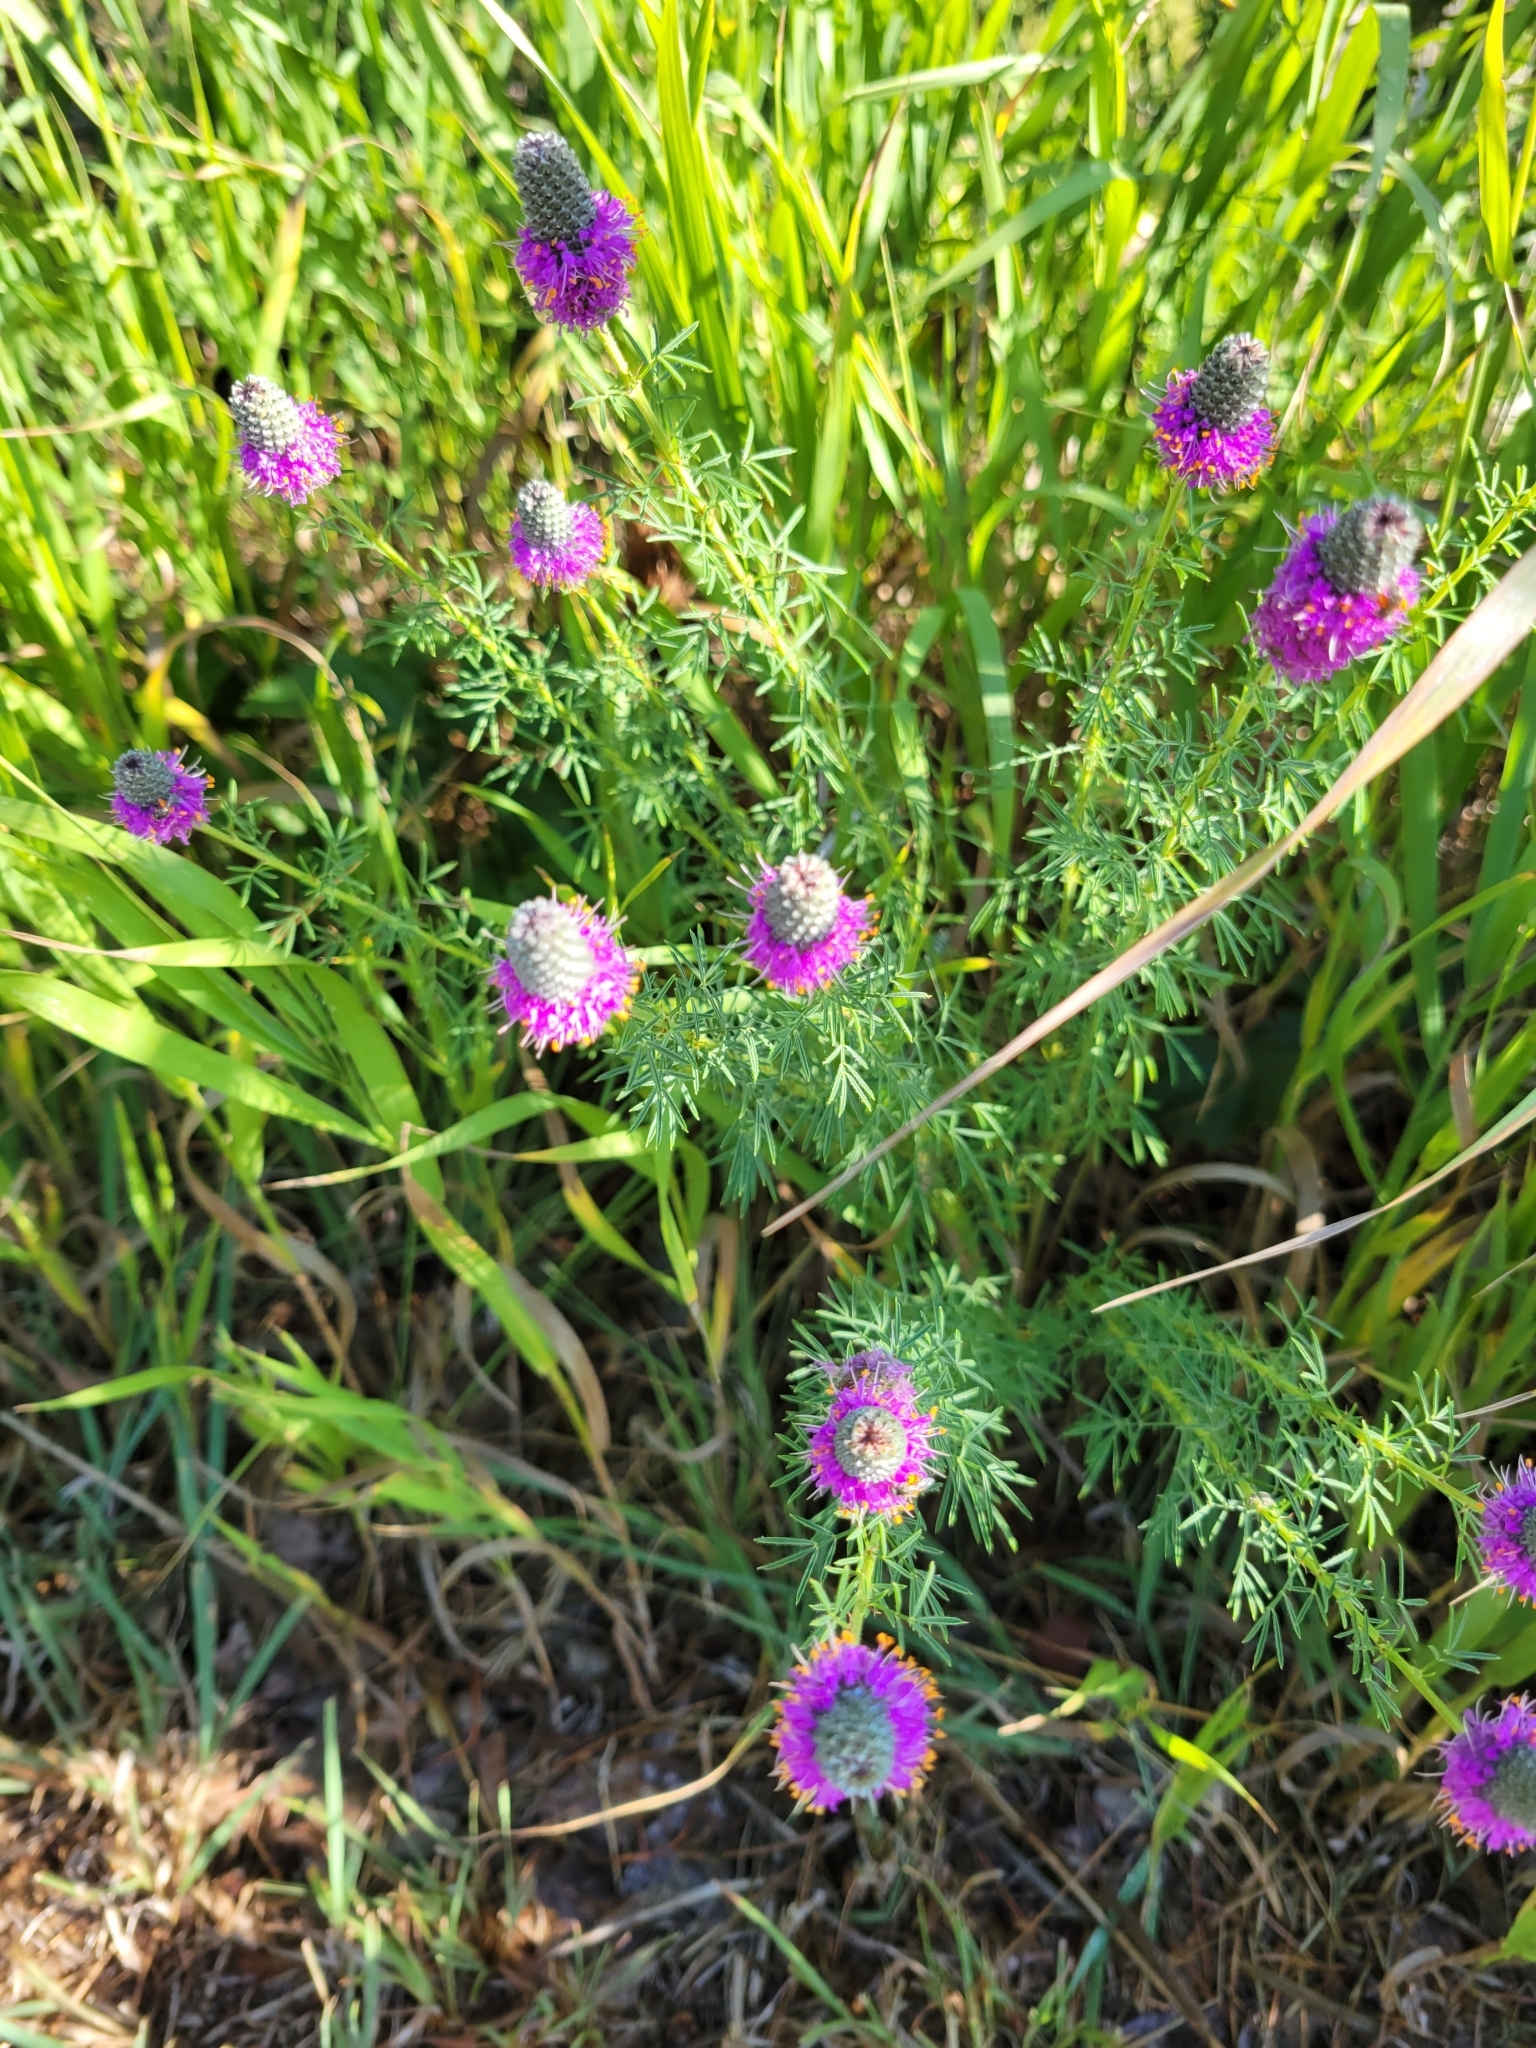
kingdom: Plantae
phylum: Tracheophyta
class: Magnoliopsida
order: Fabales
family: Fabaceae
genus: Dalea
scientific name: Dalea purpurea
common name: Purple prairie-clover
